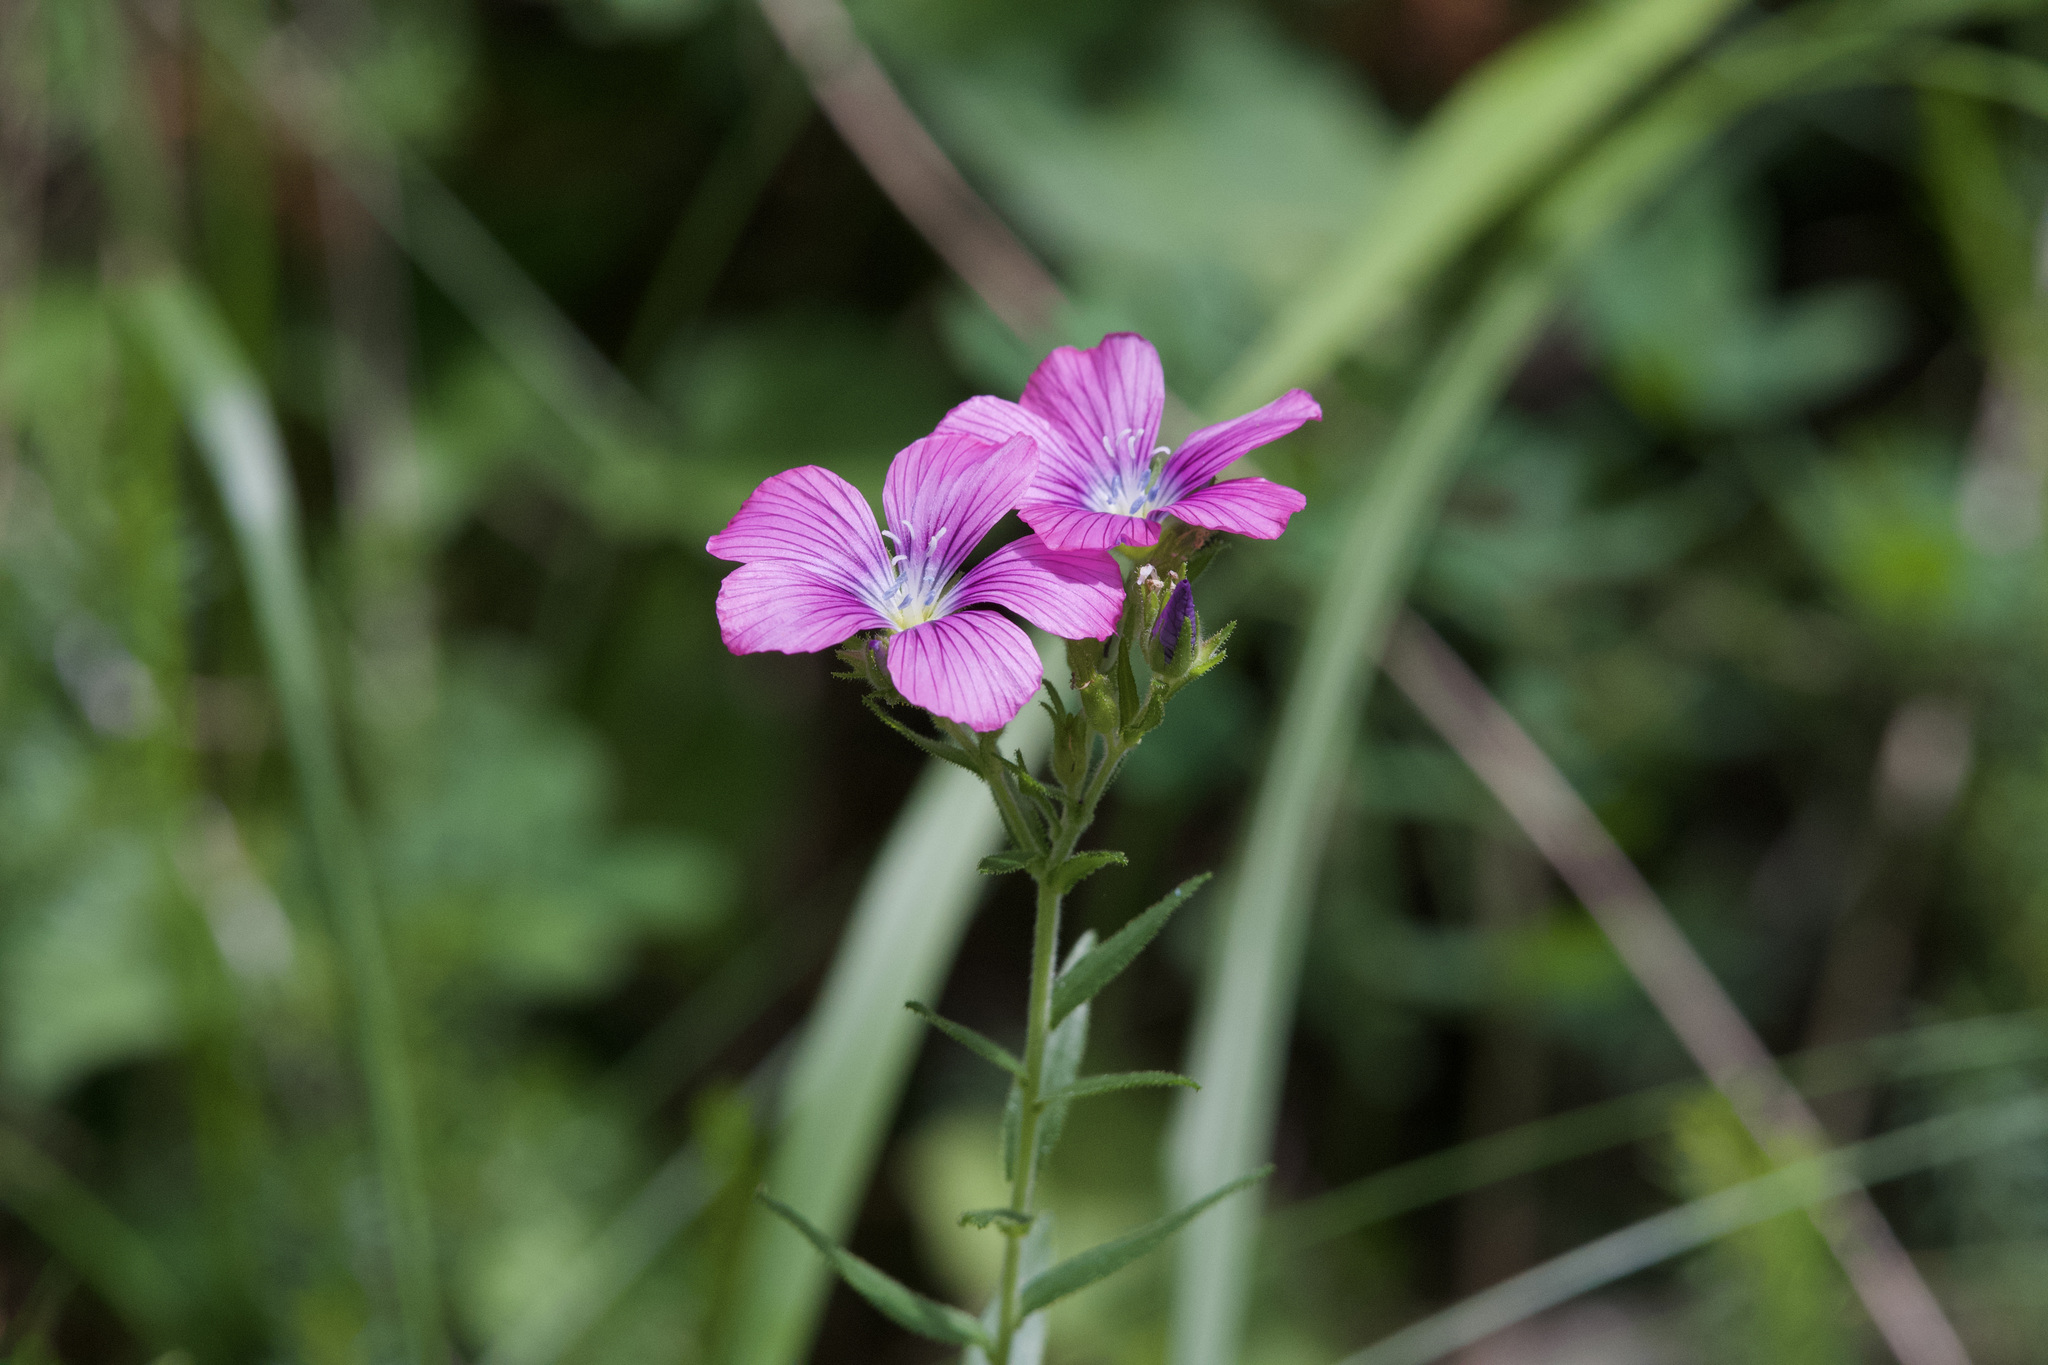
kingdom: Plantae
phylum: Tracheophyta
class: Magnoliopsida
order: Malpighiales
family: Linaceae
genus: Linum
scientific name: Linum viscosum
